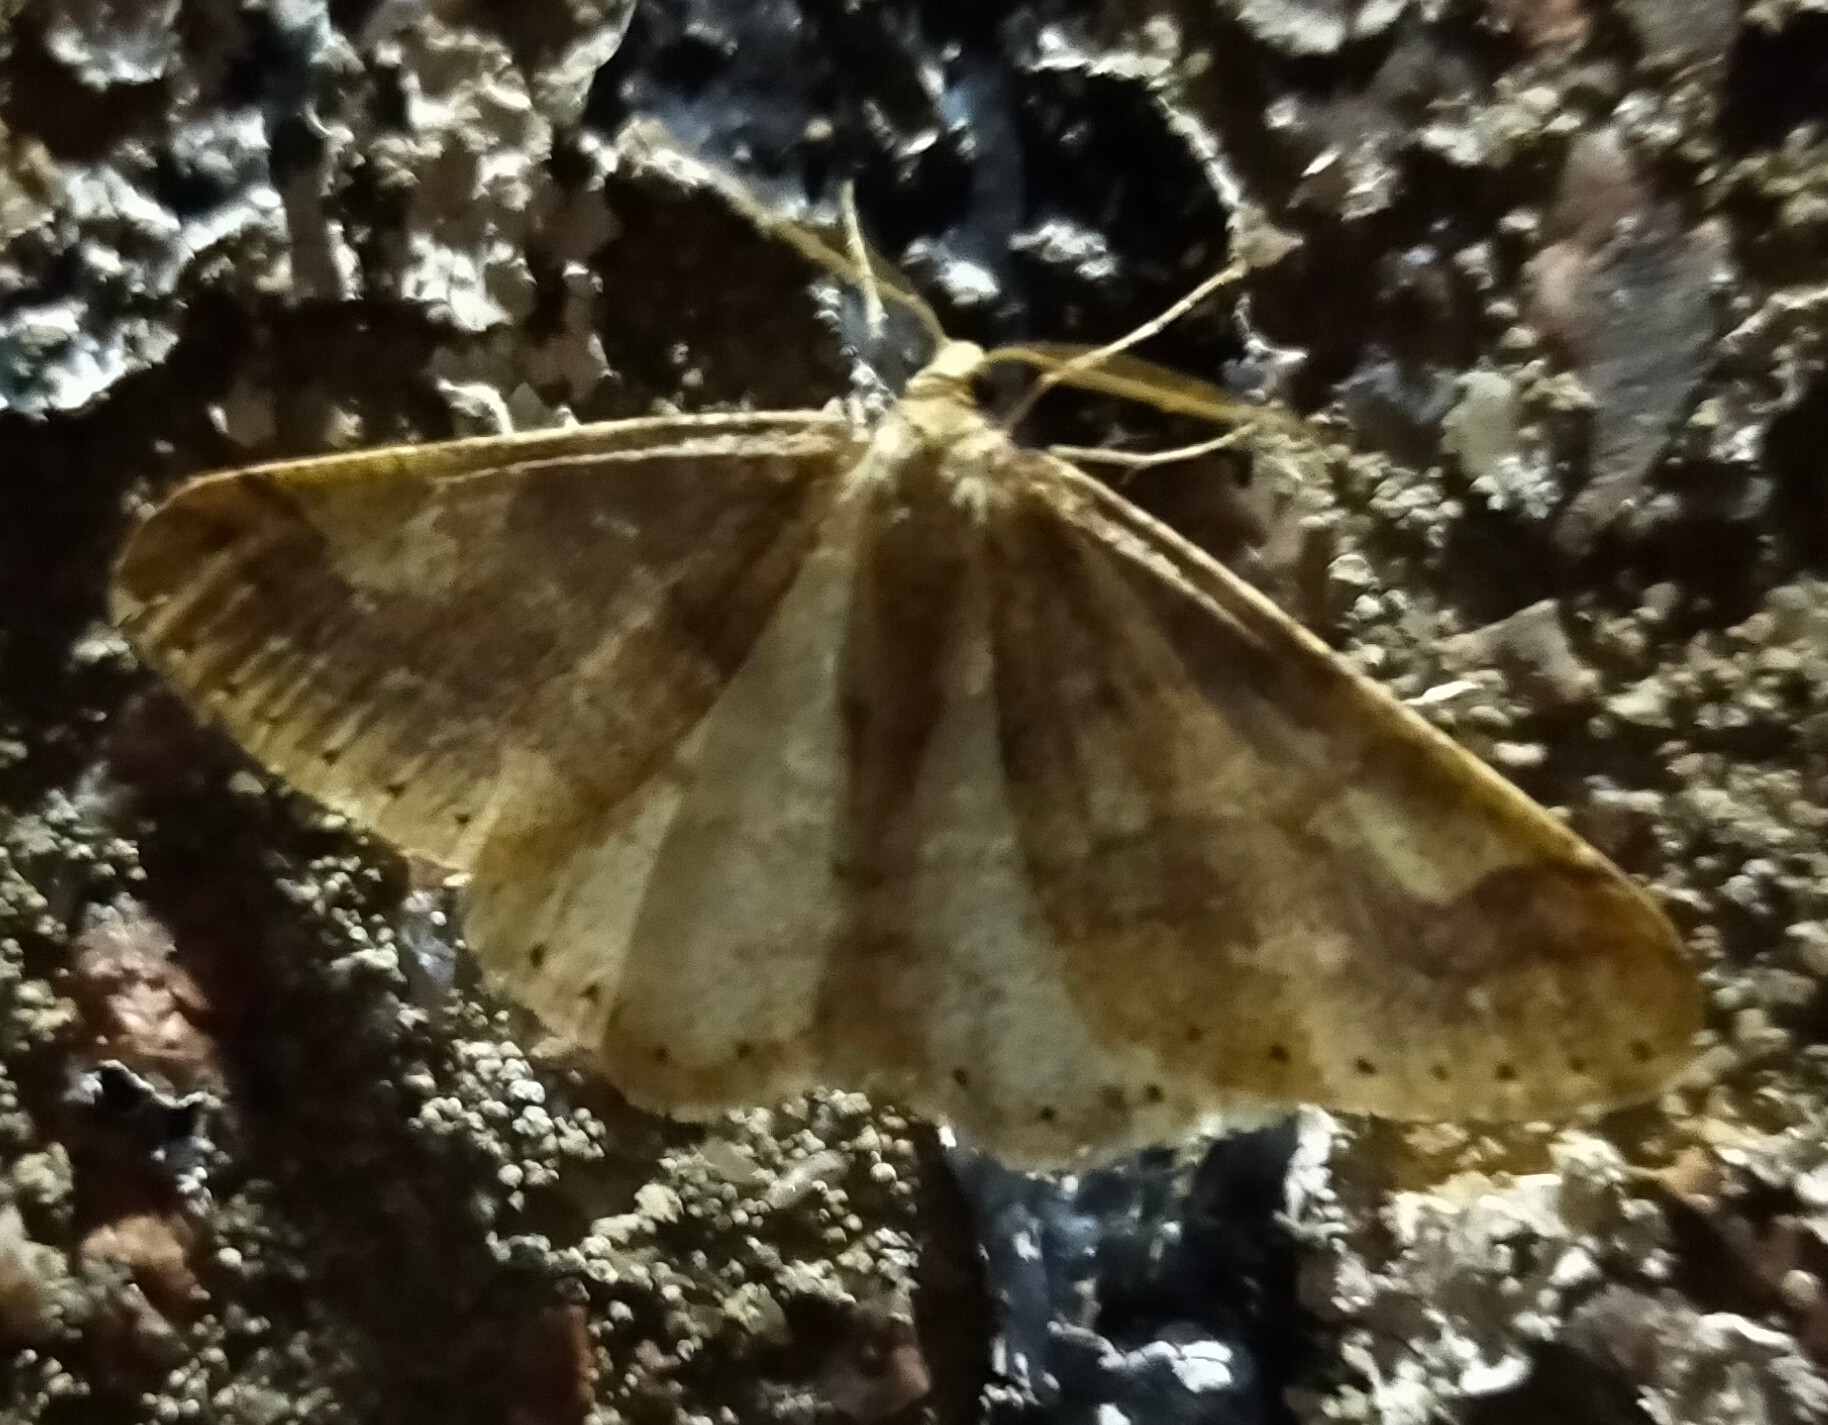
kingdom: Animalia
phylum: Arthropoda
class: Insecta
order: Lepidoptera
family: Geometridae
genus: Agriopis
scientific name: Agriopis marginaria
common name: Dotted border
